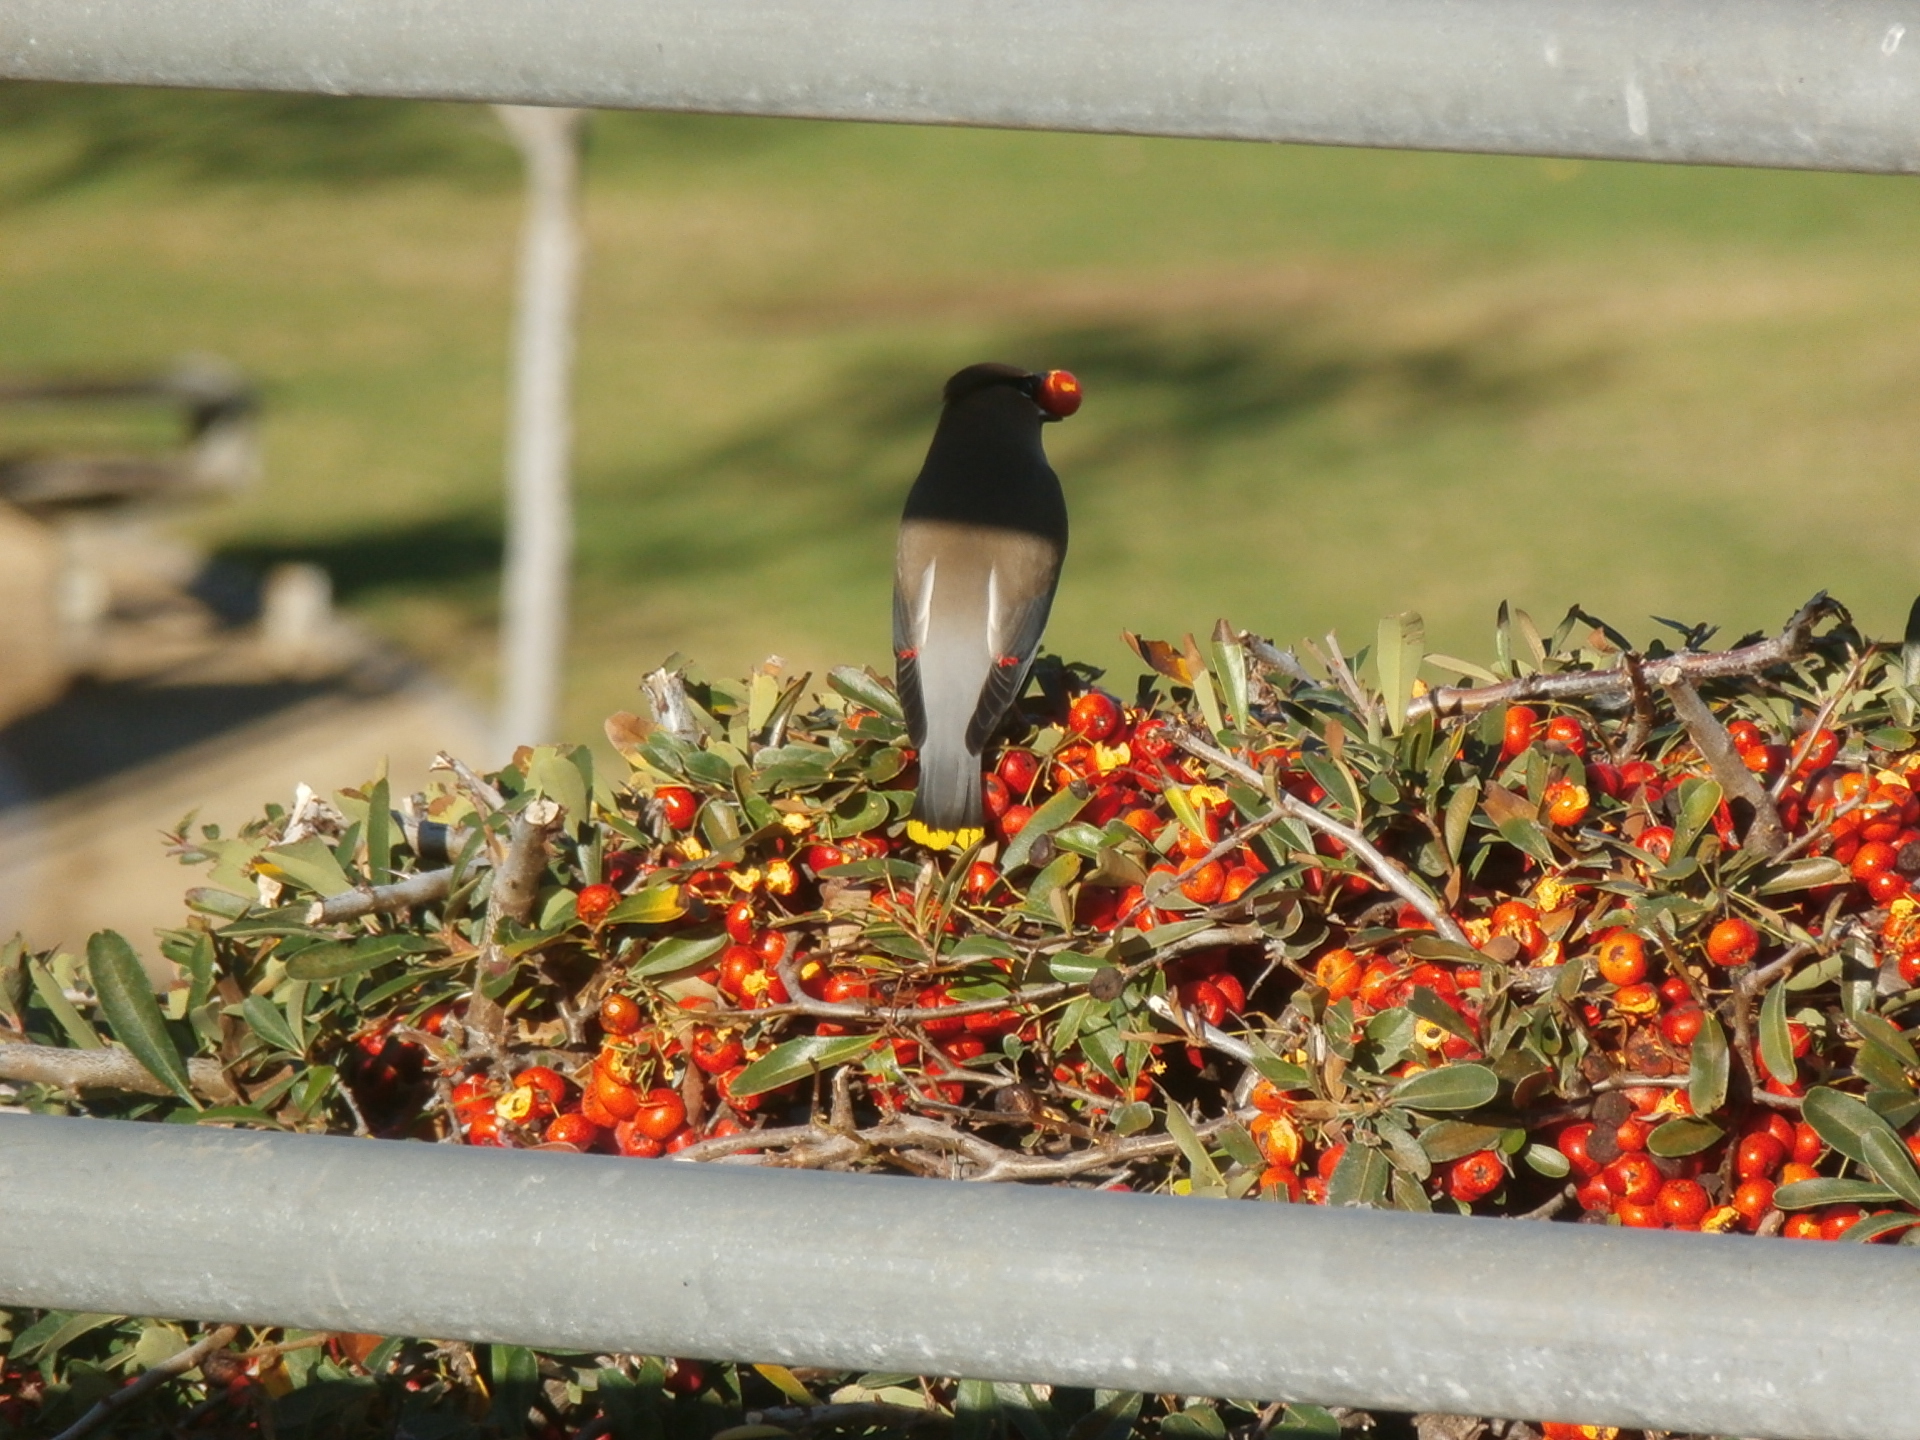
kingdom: Animalia
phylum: Chordata
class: Aves
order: Passeriformes
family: Bombycillidae
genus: Bombycilla
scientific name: Bombycilla cedrorum
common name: Cedar waxwing
